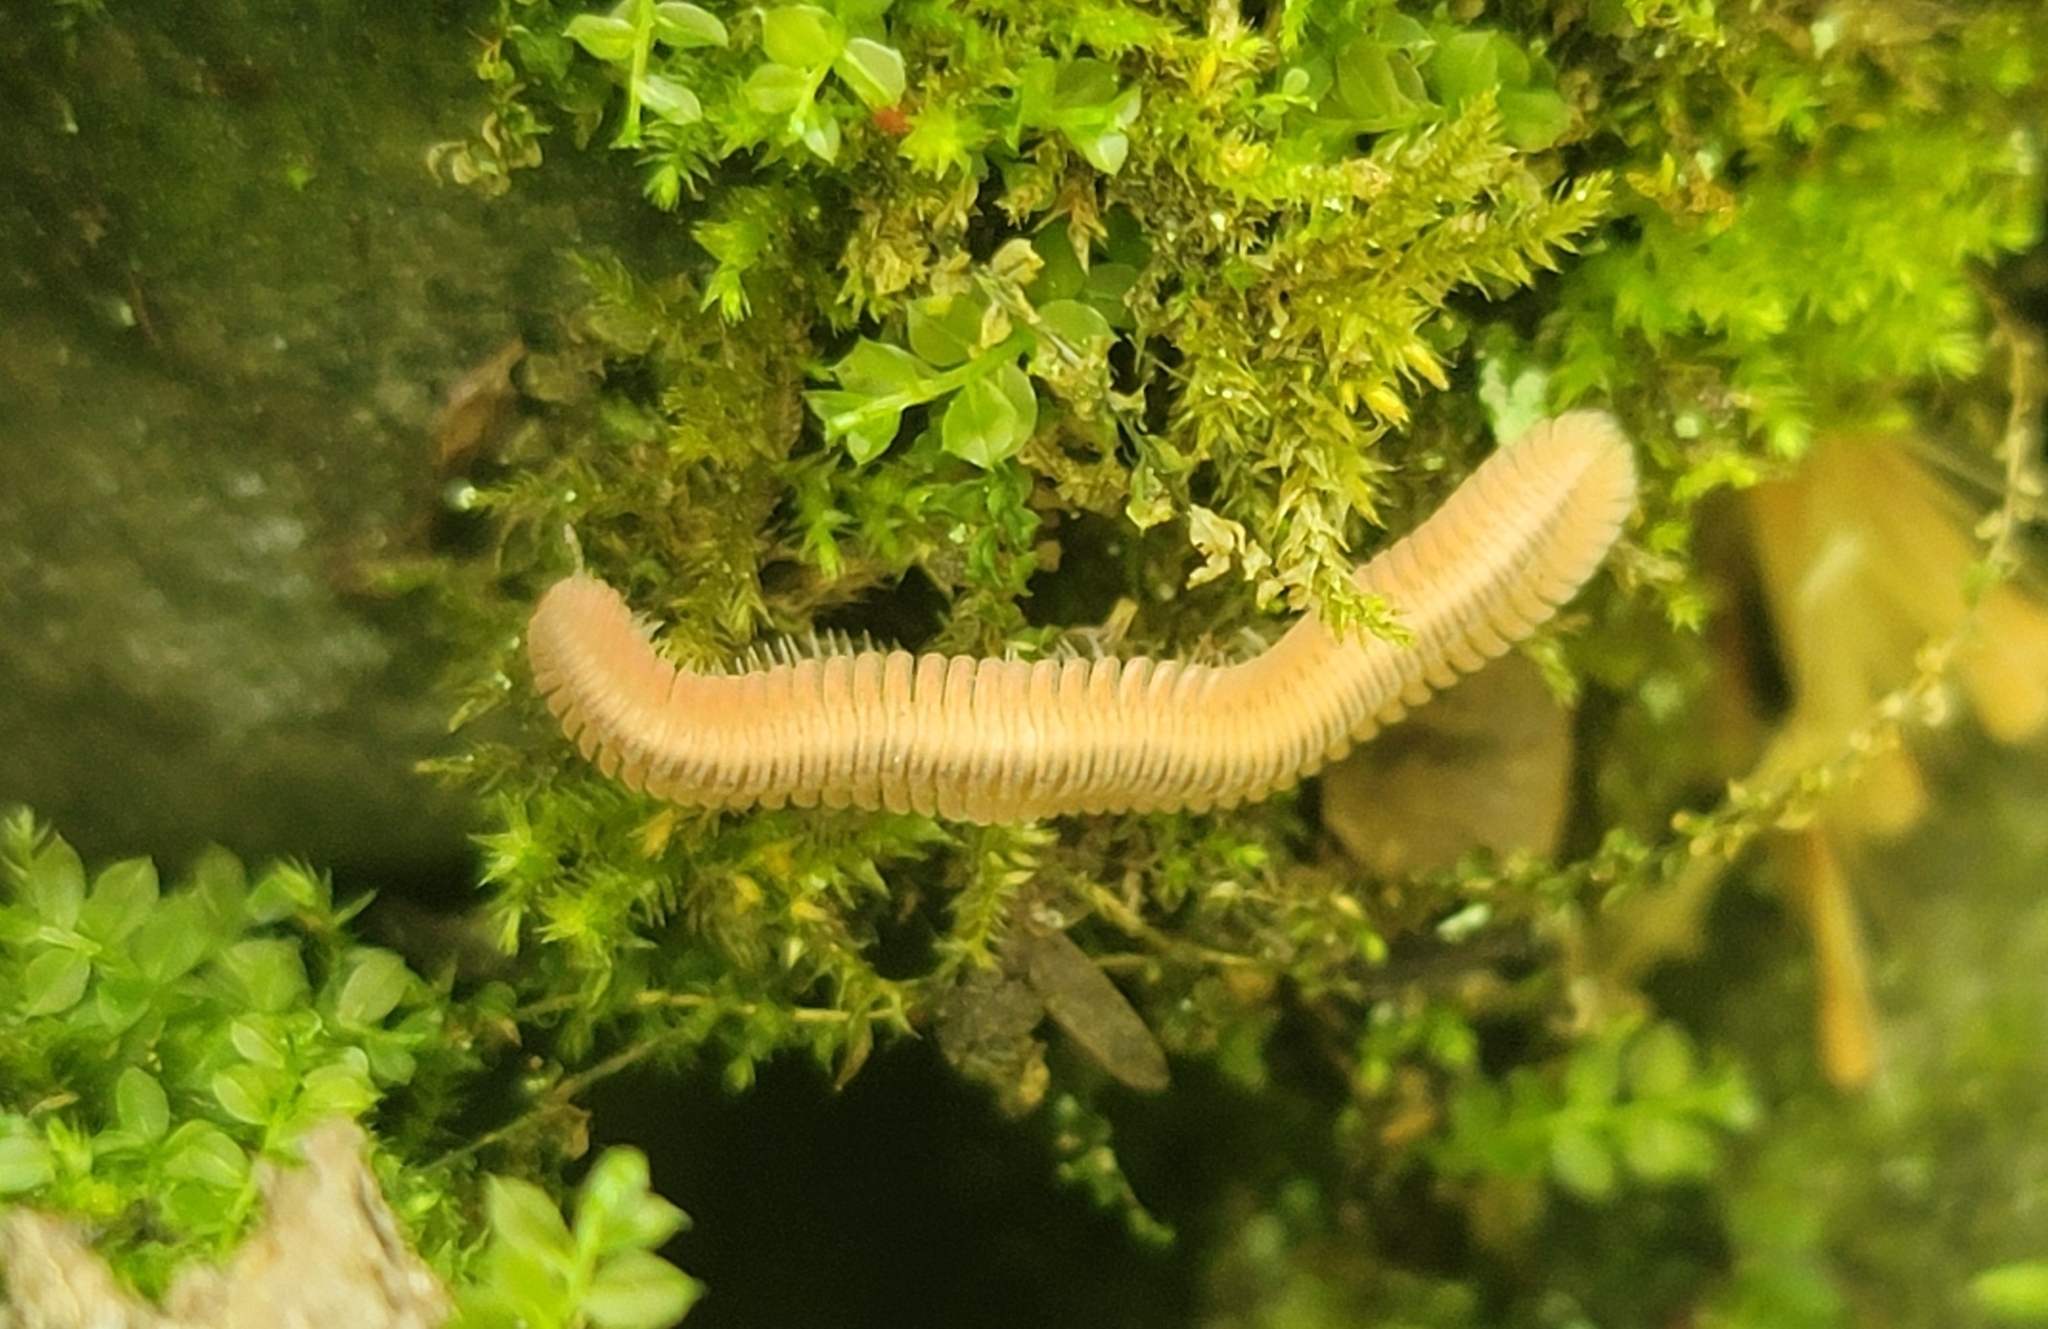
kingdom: Animalia
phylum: Arthropoda
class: Diplopoda
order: Platydesmida
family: Andrognathidae
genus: Brachycybe
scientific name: Brachycybe lecontii
